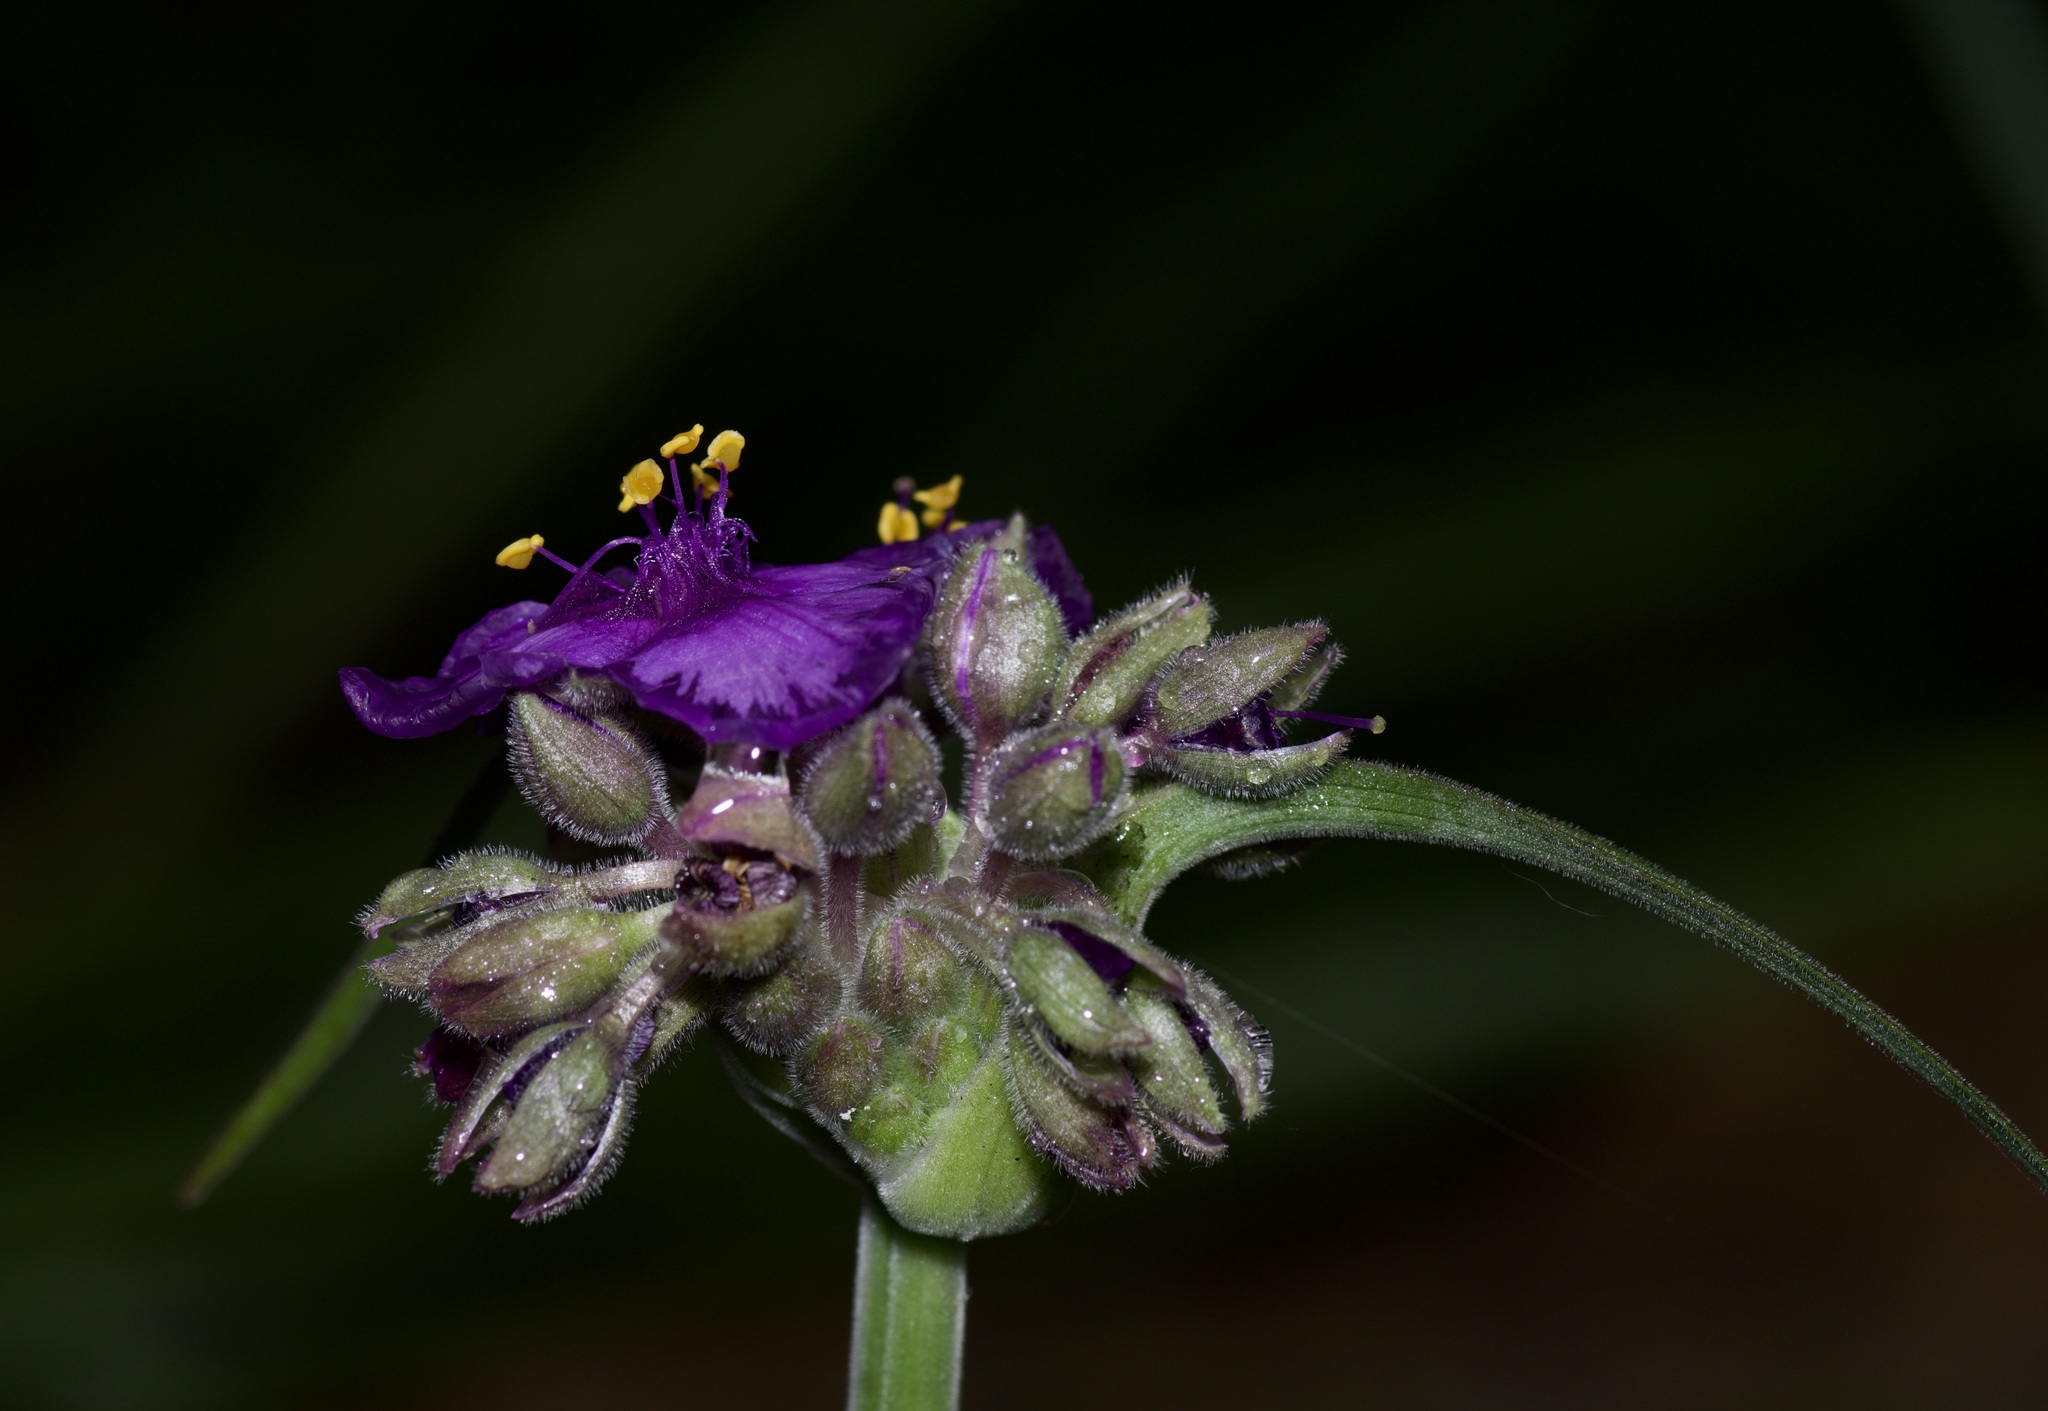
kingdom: Plantae
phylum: Tracheophyta
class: Liliopsida
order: Commelinales
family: Commelinaceae
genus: Tradescantia
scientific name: Tradescantia gigantea
